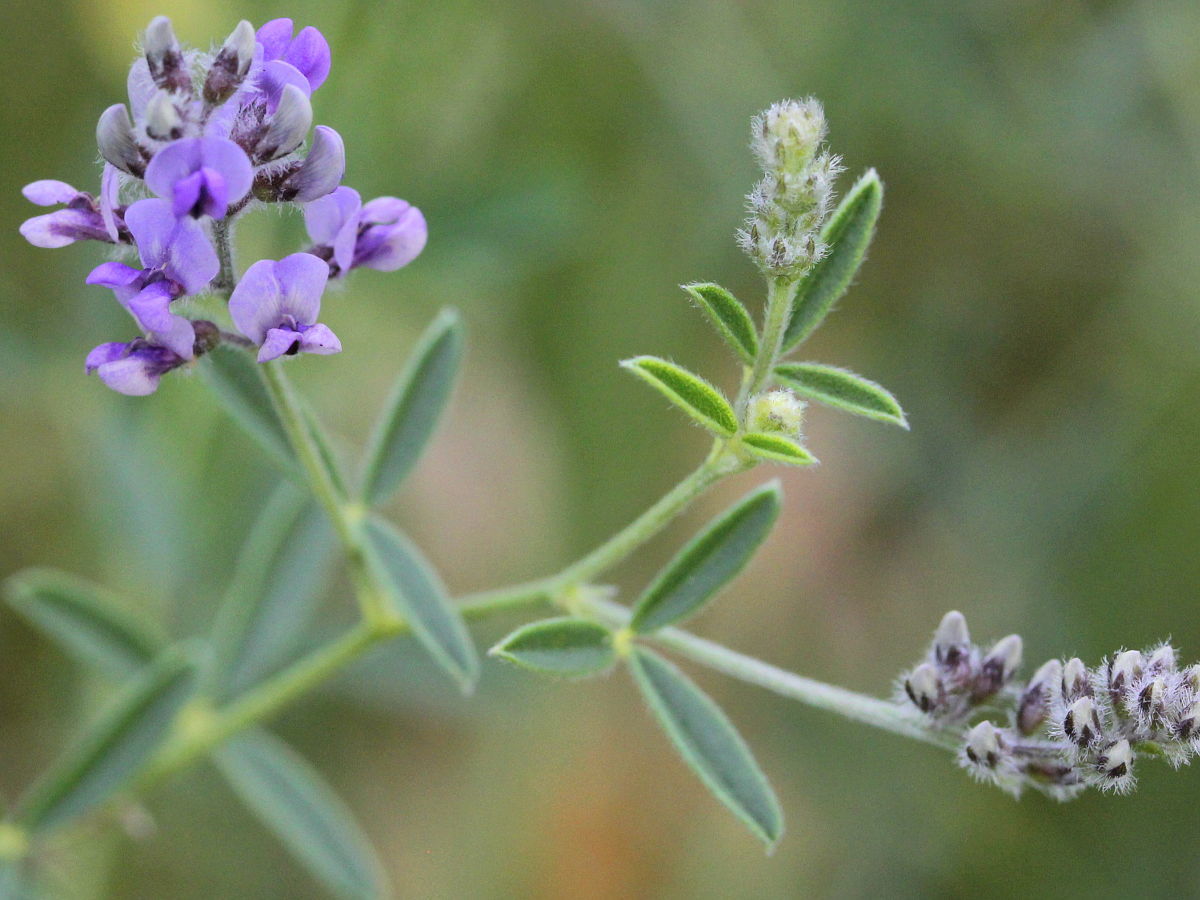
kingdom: Plantae
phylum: Tracheophyta
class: Magnoliopsida
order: Fabales
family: Fabaceae
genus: Pediomelum
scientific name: Pediomelum tenuiflorum
